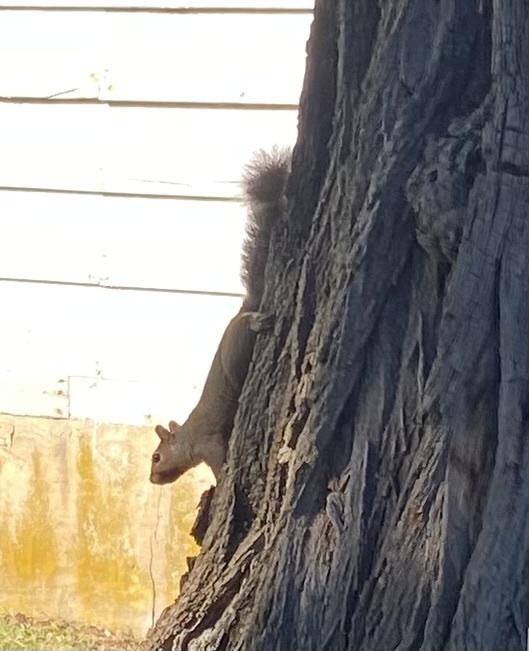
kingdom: Animalia
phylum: Chordata
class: Mammalia
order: Rodentia
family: Sciuridae
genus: Sciurus
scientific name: Sciurus carolinensis
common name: Eastern gray squirrel
